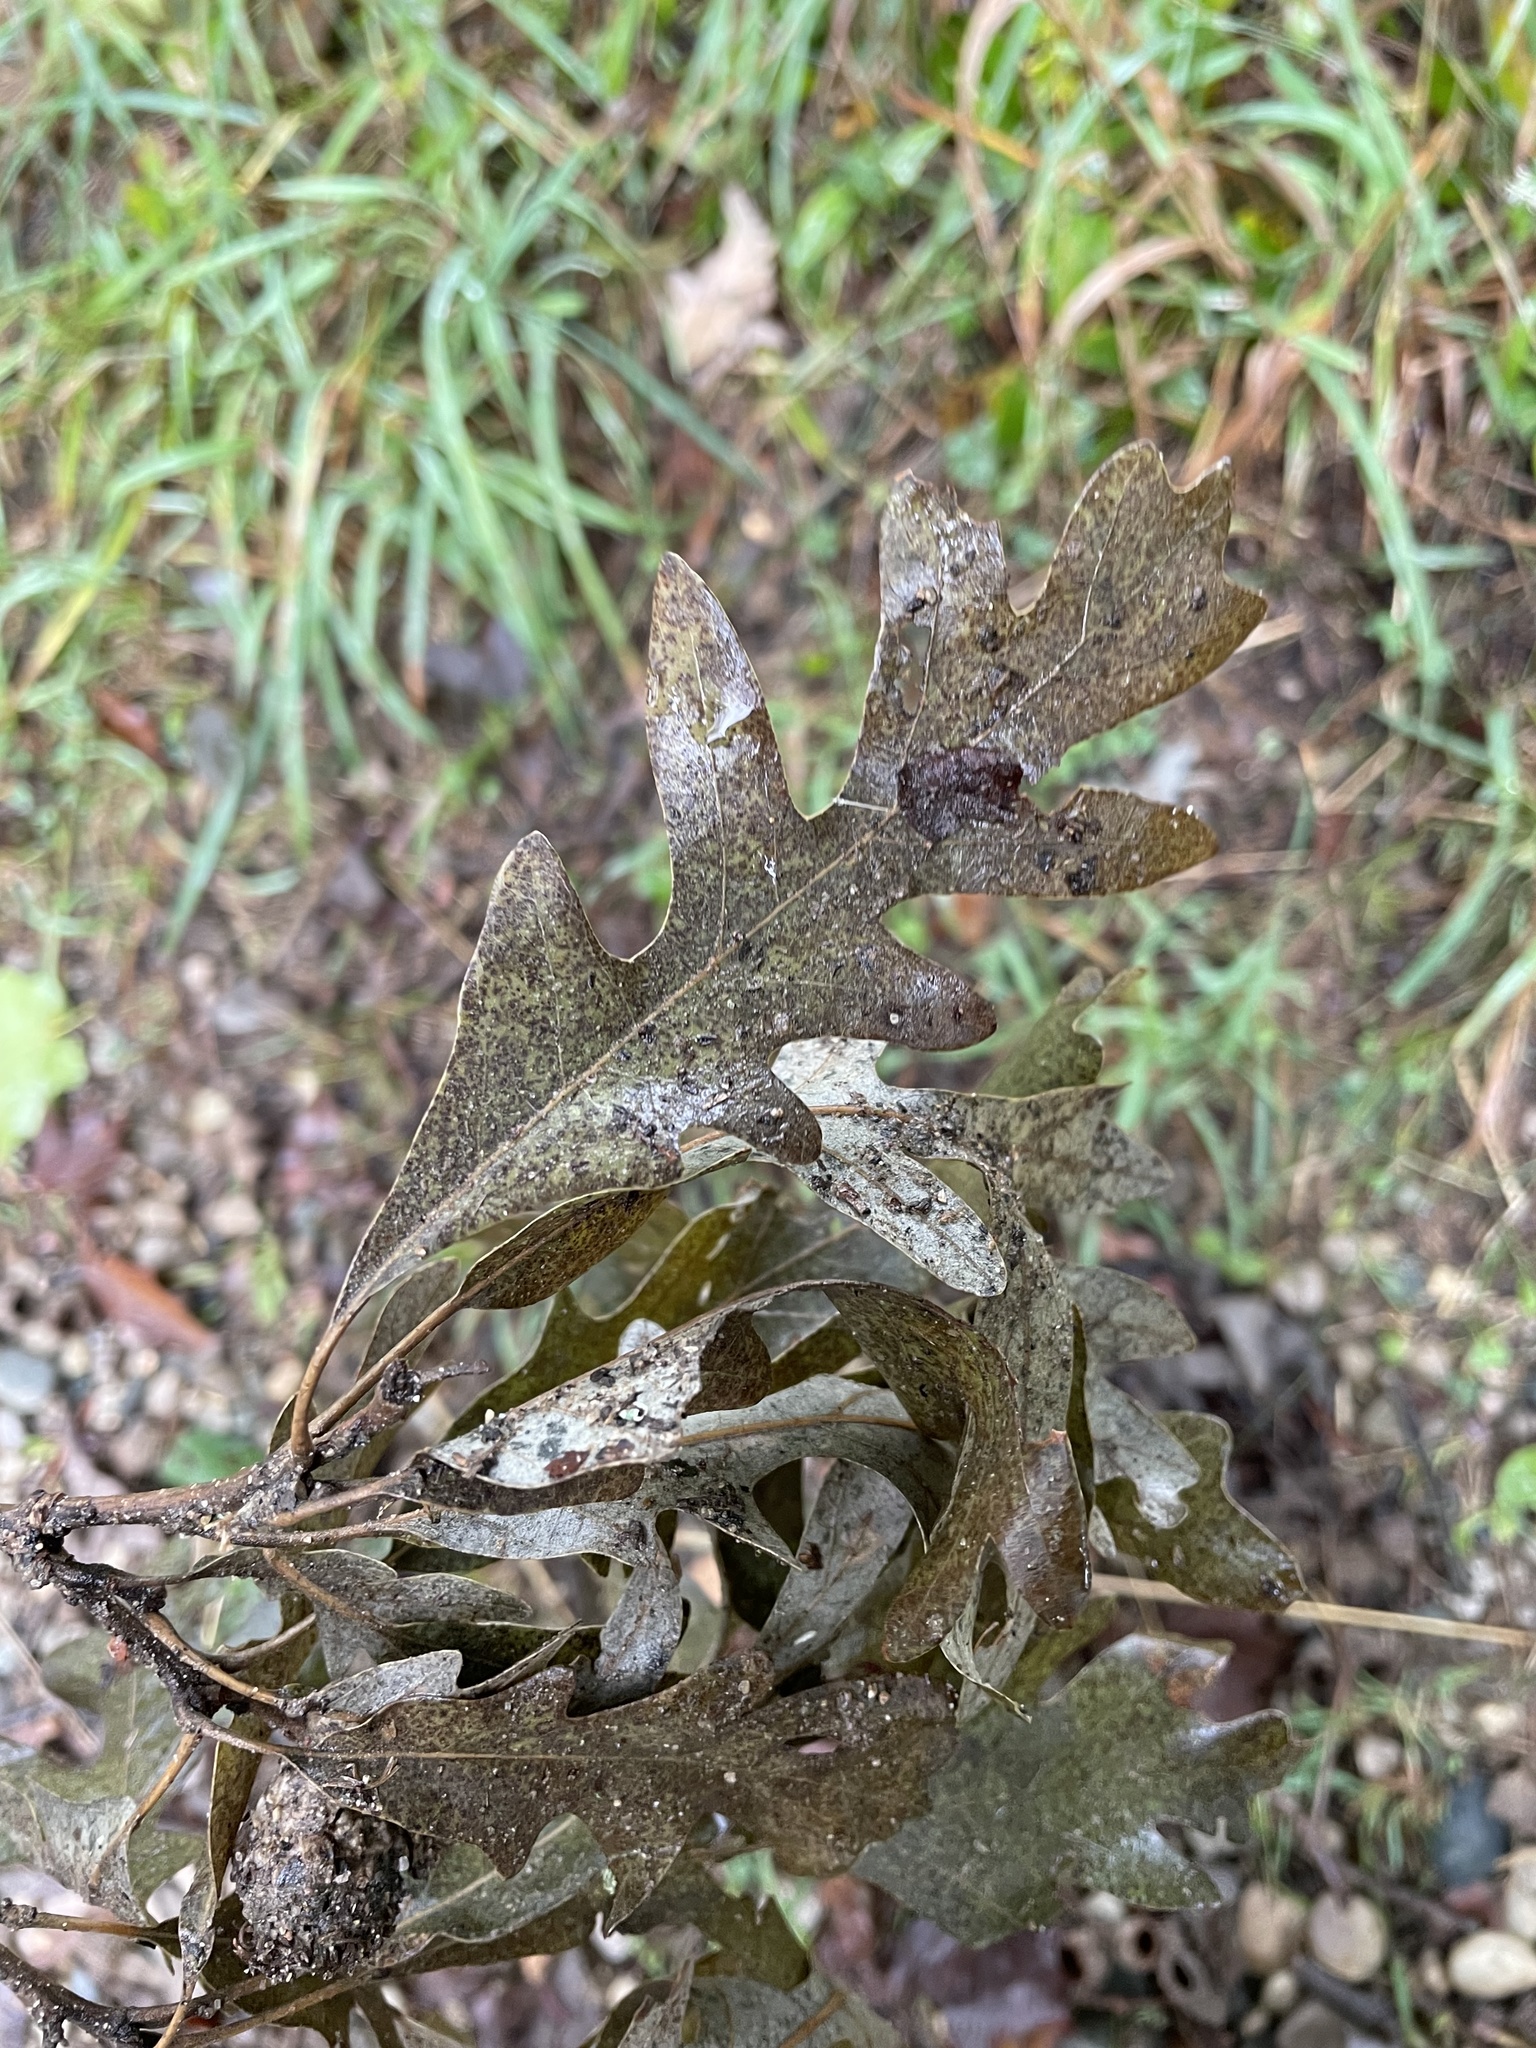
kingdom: Plantae
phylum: Tracheophyta
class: Magnoliopsida
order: Fagales
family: Fagaceae
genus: Quercus
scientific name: Quercus alba
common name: White oak
